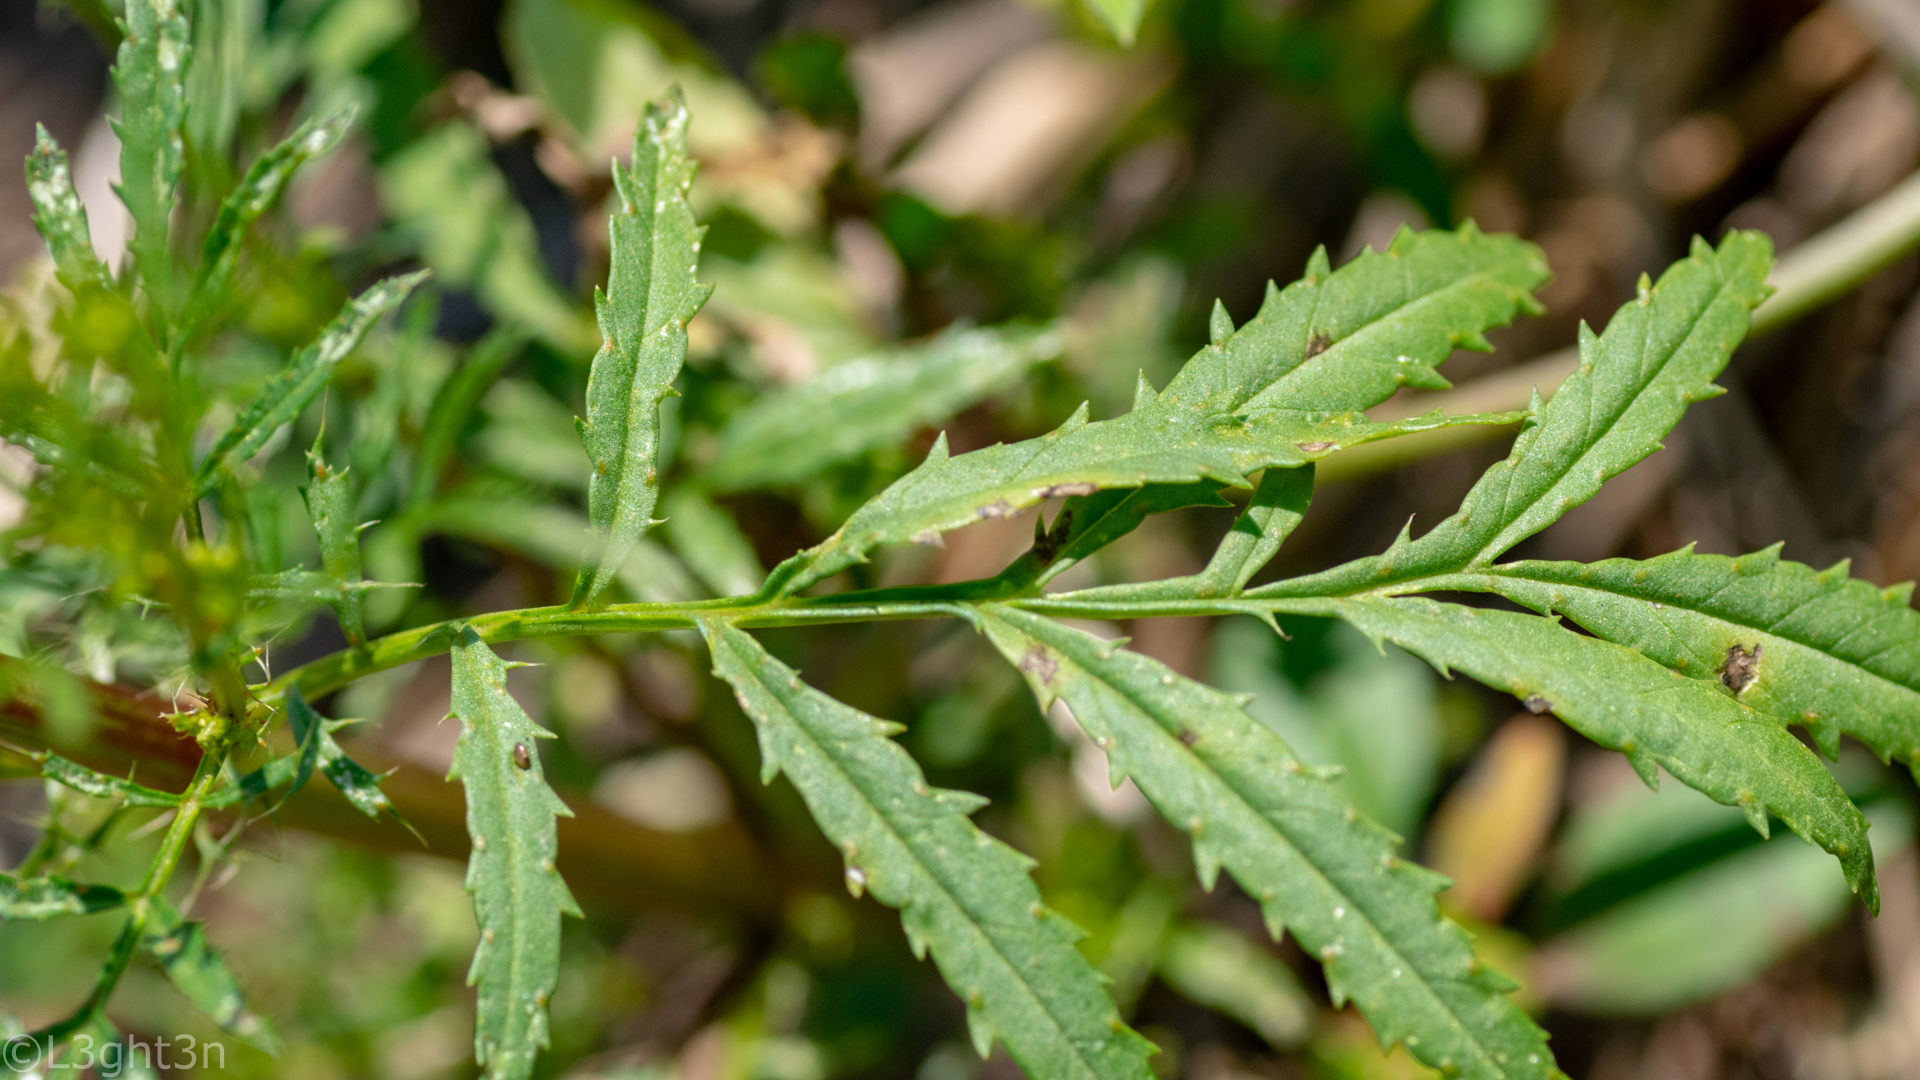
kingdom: Plantae
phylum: Tracheophyta
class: Magnoliopsida
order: Asterales
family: Asteraceae
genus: Tagetes
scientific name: Tagetes minuta
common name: Muster john henry
